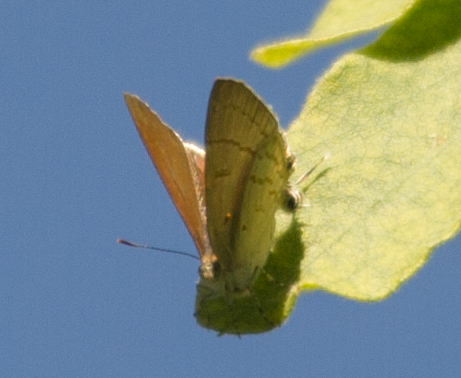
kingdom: Animalia
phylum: Arthropoda
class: Insecta
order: Lepidoptera
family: Lycaenidae
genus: Hypolycaena
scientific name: Hypolycaena philippus
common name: Common hairstreak
